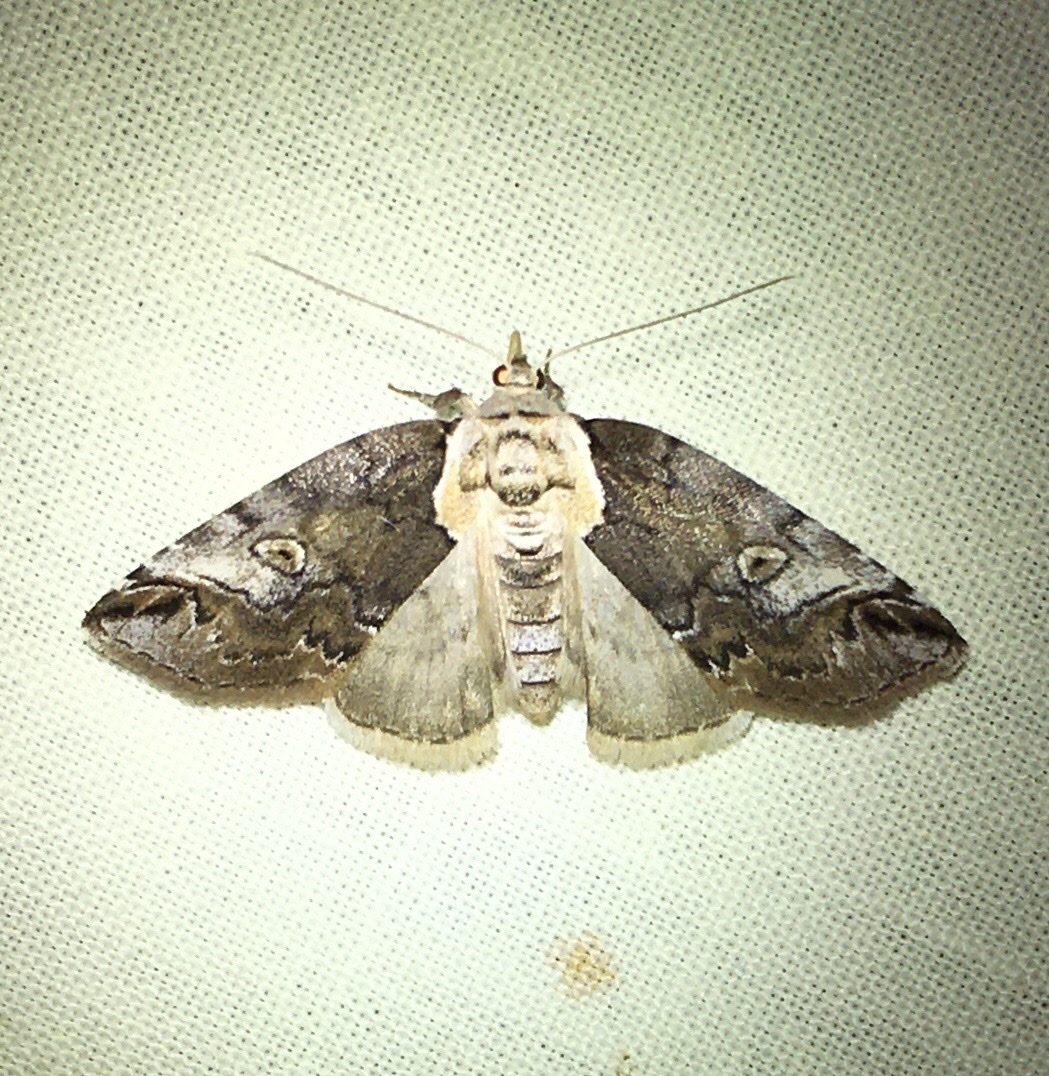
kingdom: Animalia
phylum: Arthropoda
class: Insecta
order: Lepidoptera
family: Nolidae
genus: Baileya
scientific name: Baileya ophthalmica
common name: Eyed baileya moth
